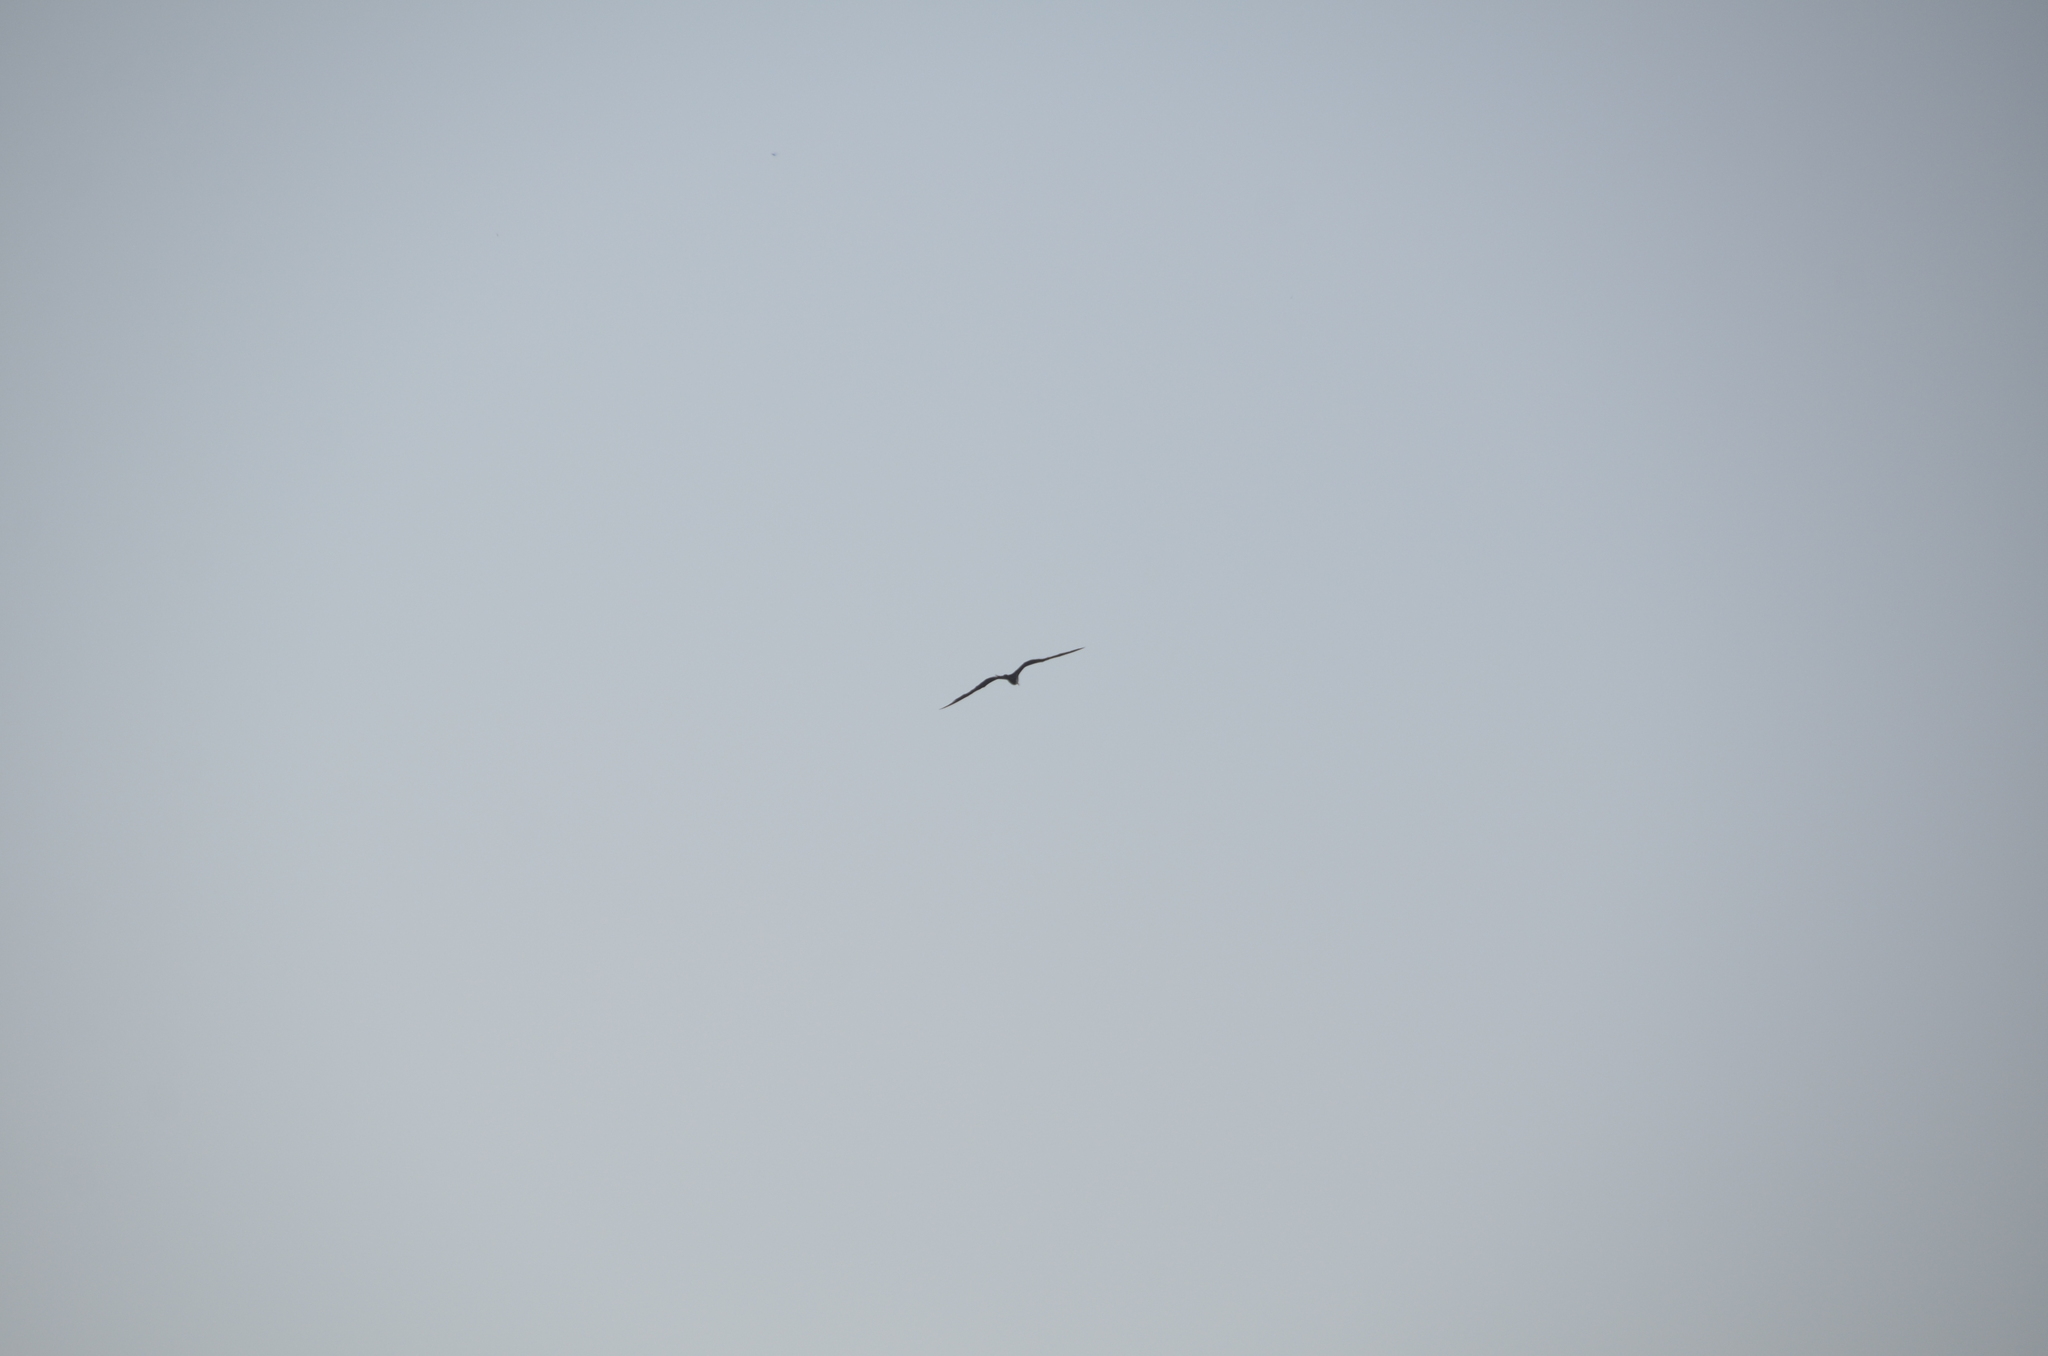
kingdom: Animalia
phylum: Chordata
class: Aves
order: Suliformes
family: Fregatidae
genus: Fregata
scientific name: Fregata magnificens
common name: Magnificent frigatebird
